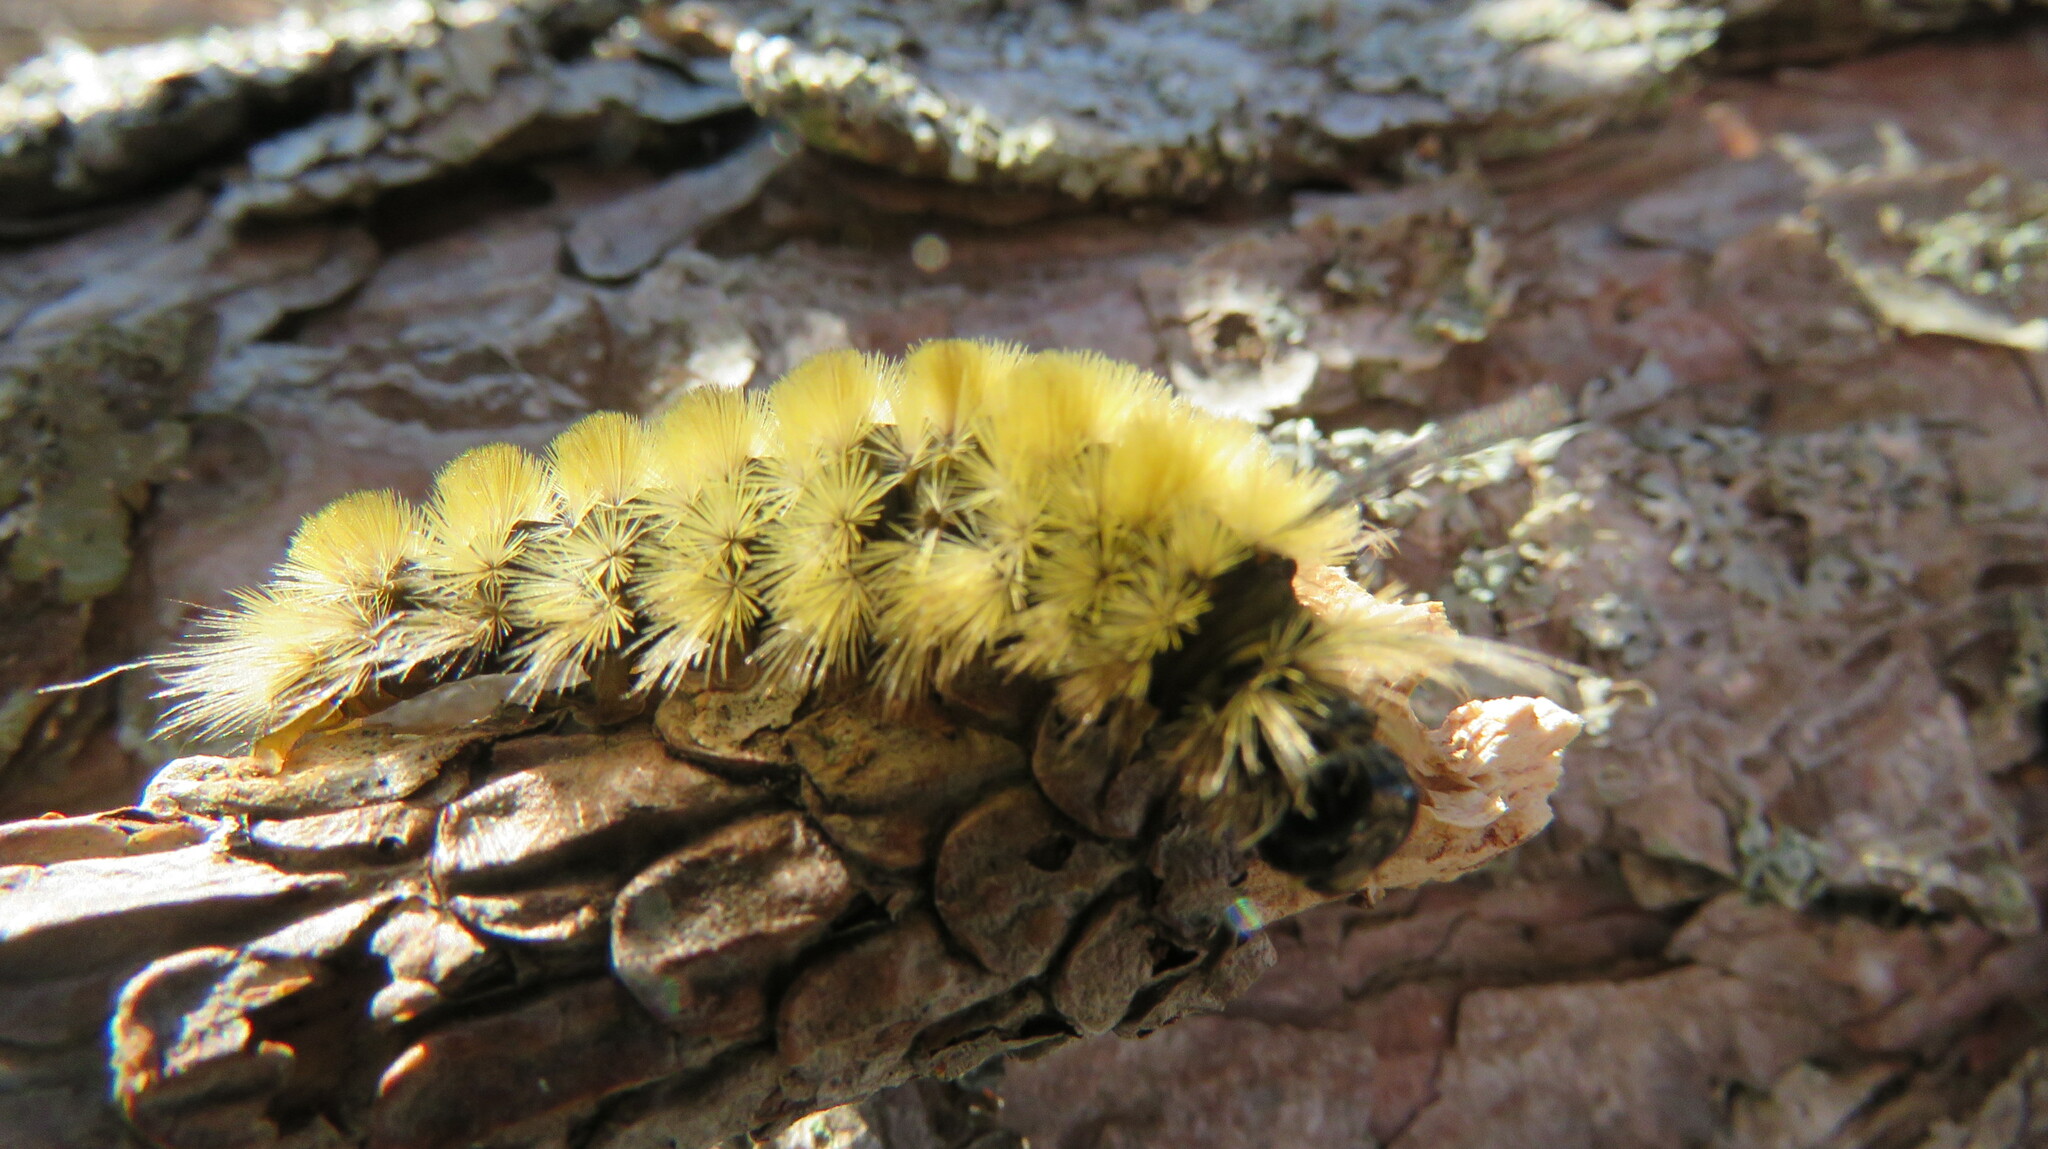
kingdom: Animalia
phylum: Arthropoda
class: Insecta
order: Lepidoptera
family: Erebidae
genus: Halysidota
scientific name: Halysidota tessellaris
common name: Banded tussock moth
